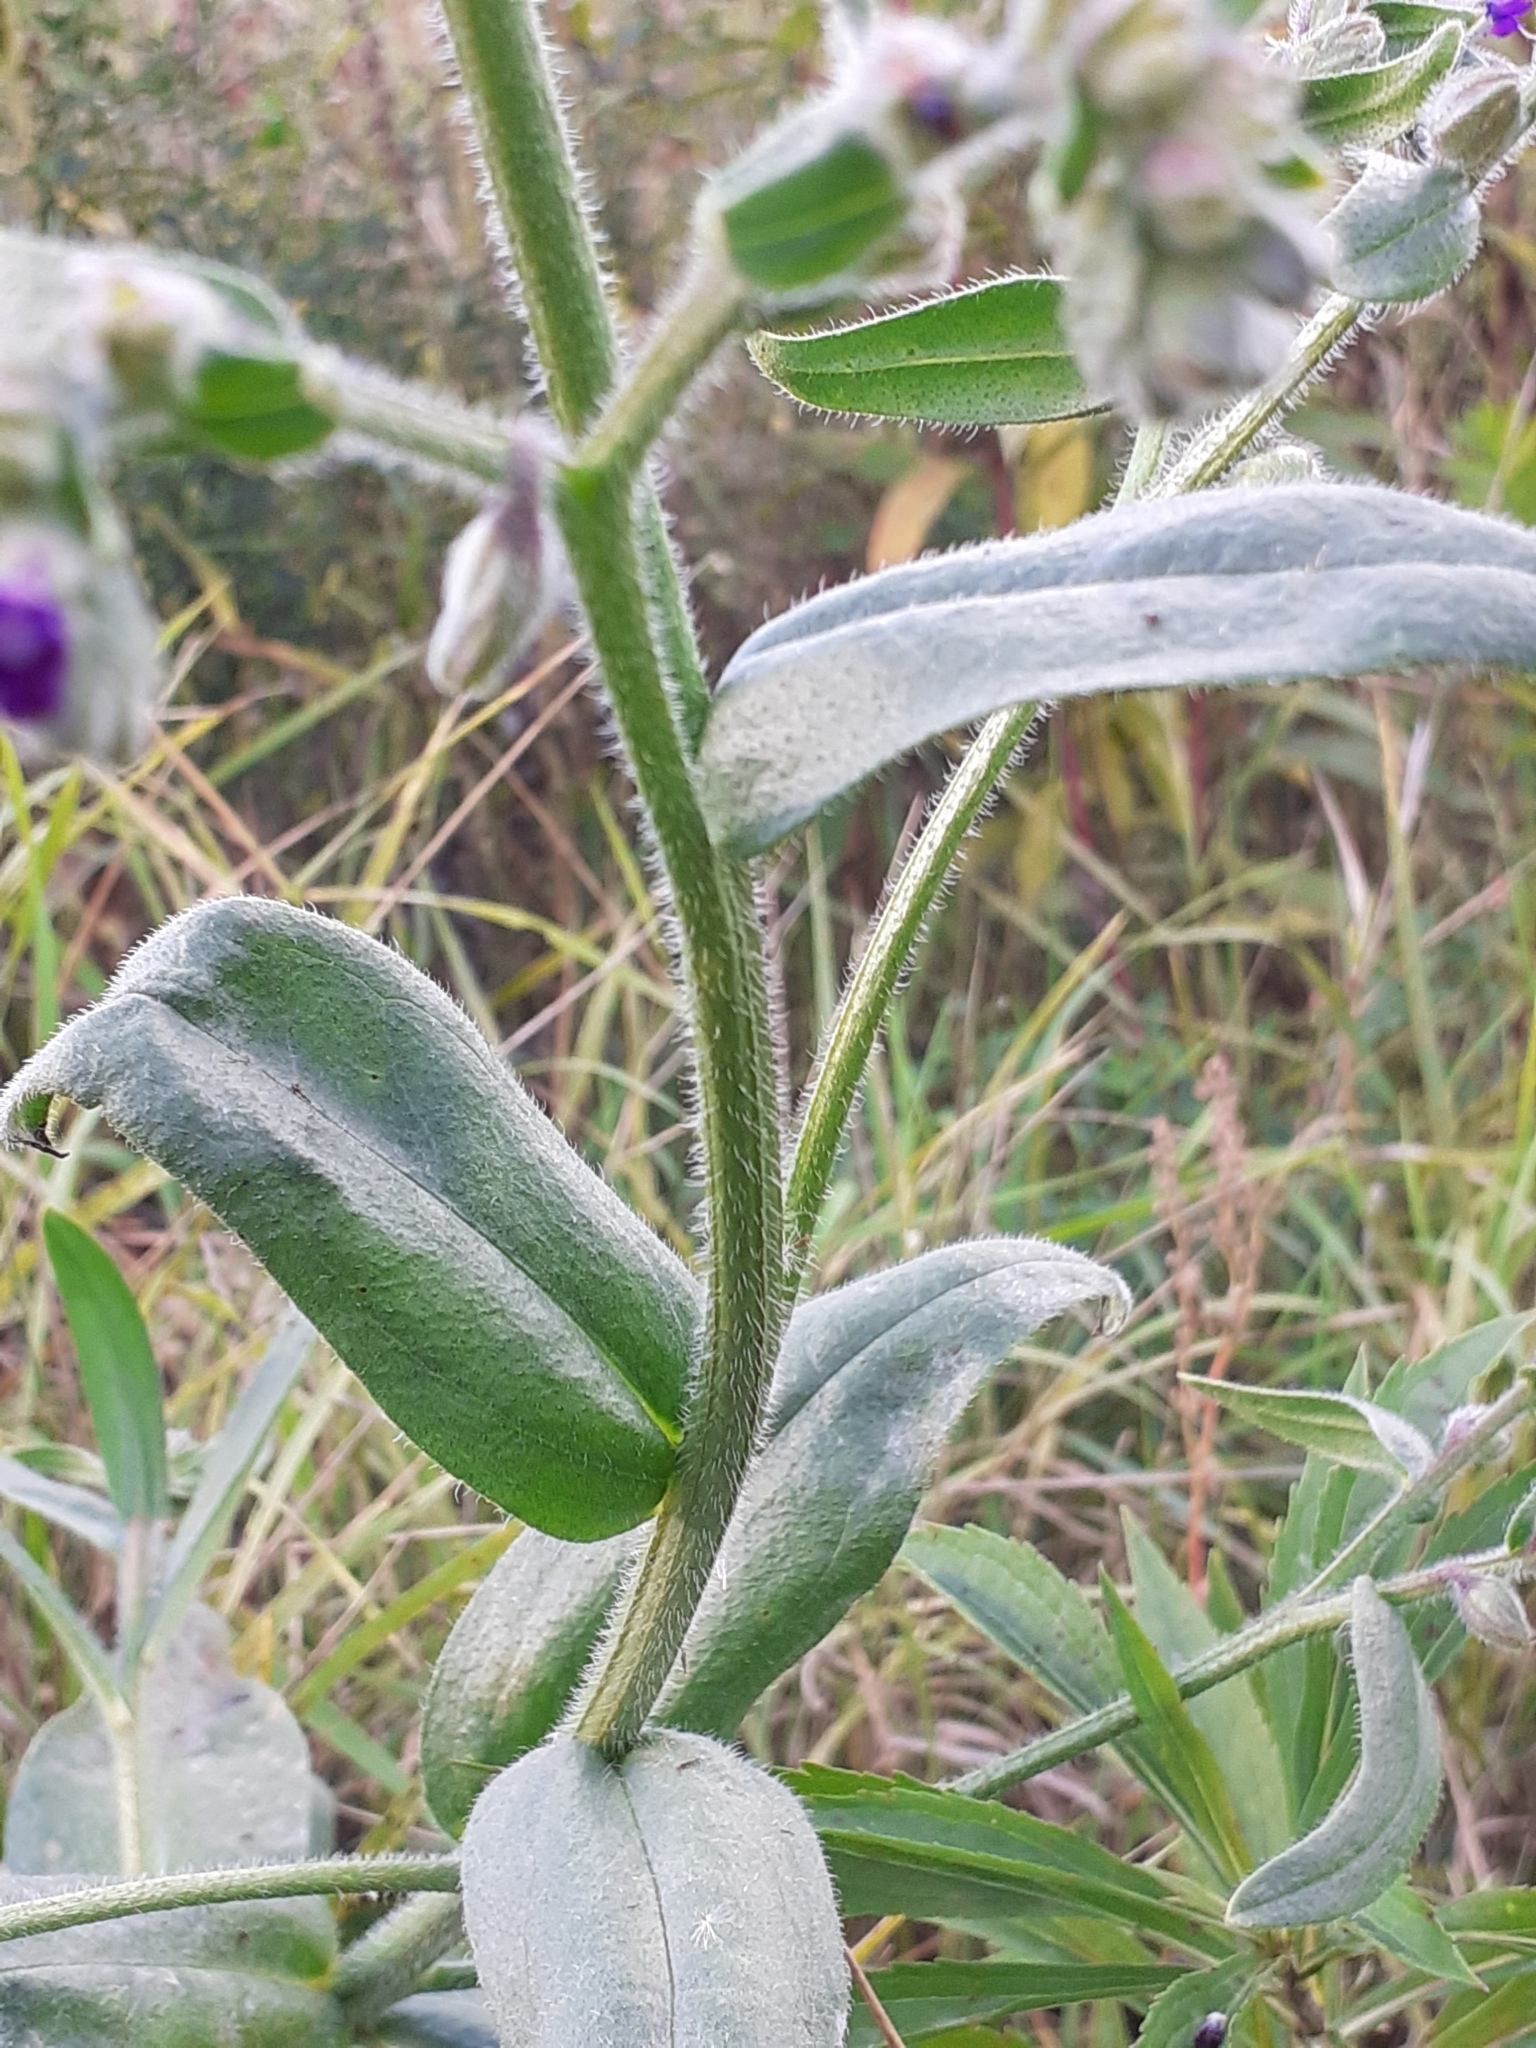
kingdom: Plantae
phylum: Tracheophyta
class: Magnoliopsida
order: Boraginales
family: Boraginaceae
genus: Anchusa
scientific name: Anchusa officinalis
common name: Alkanet
